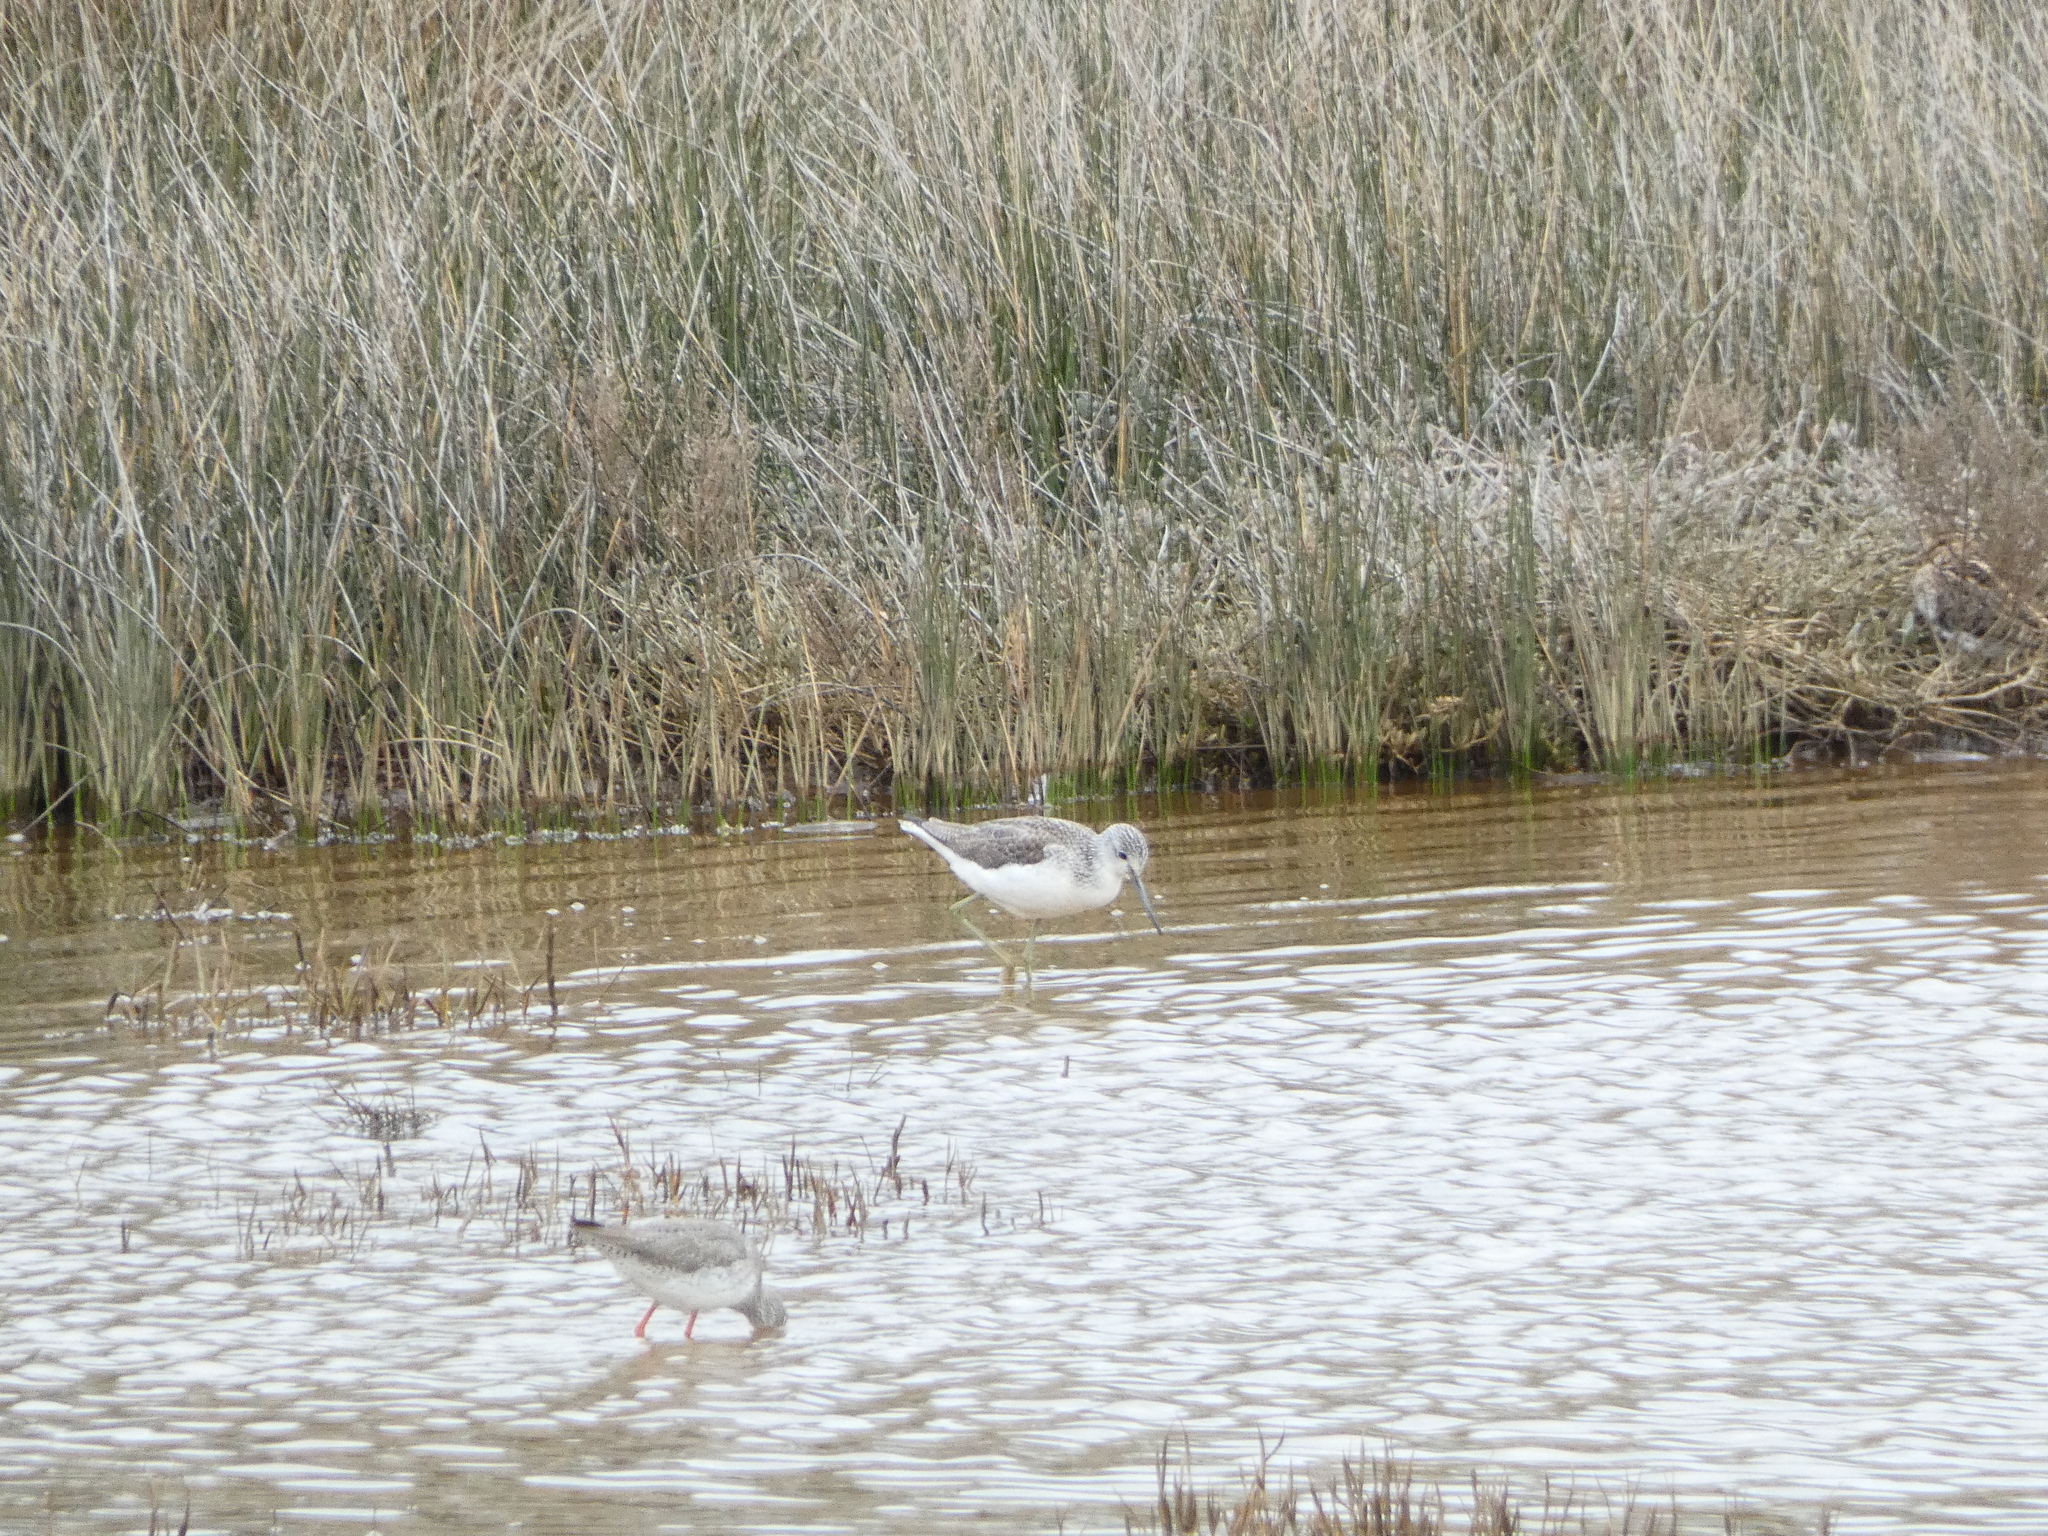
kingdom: Animalia
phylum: Chordata
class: Aves
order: Charadriiformes
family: Scolopacidae
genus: Tringa
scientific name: Tringa nebularia
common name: Common greenshank
